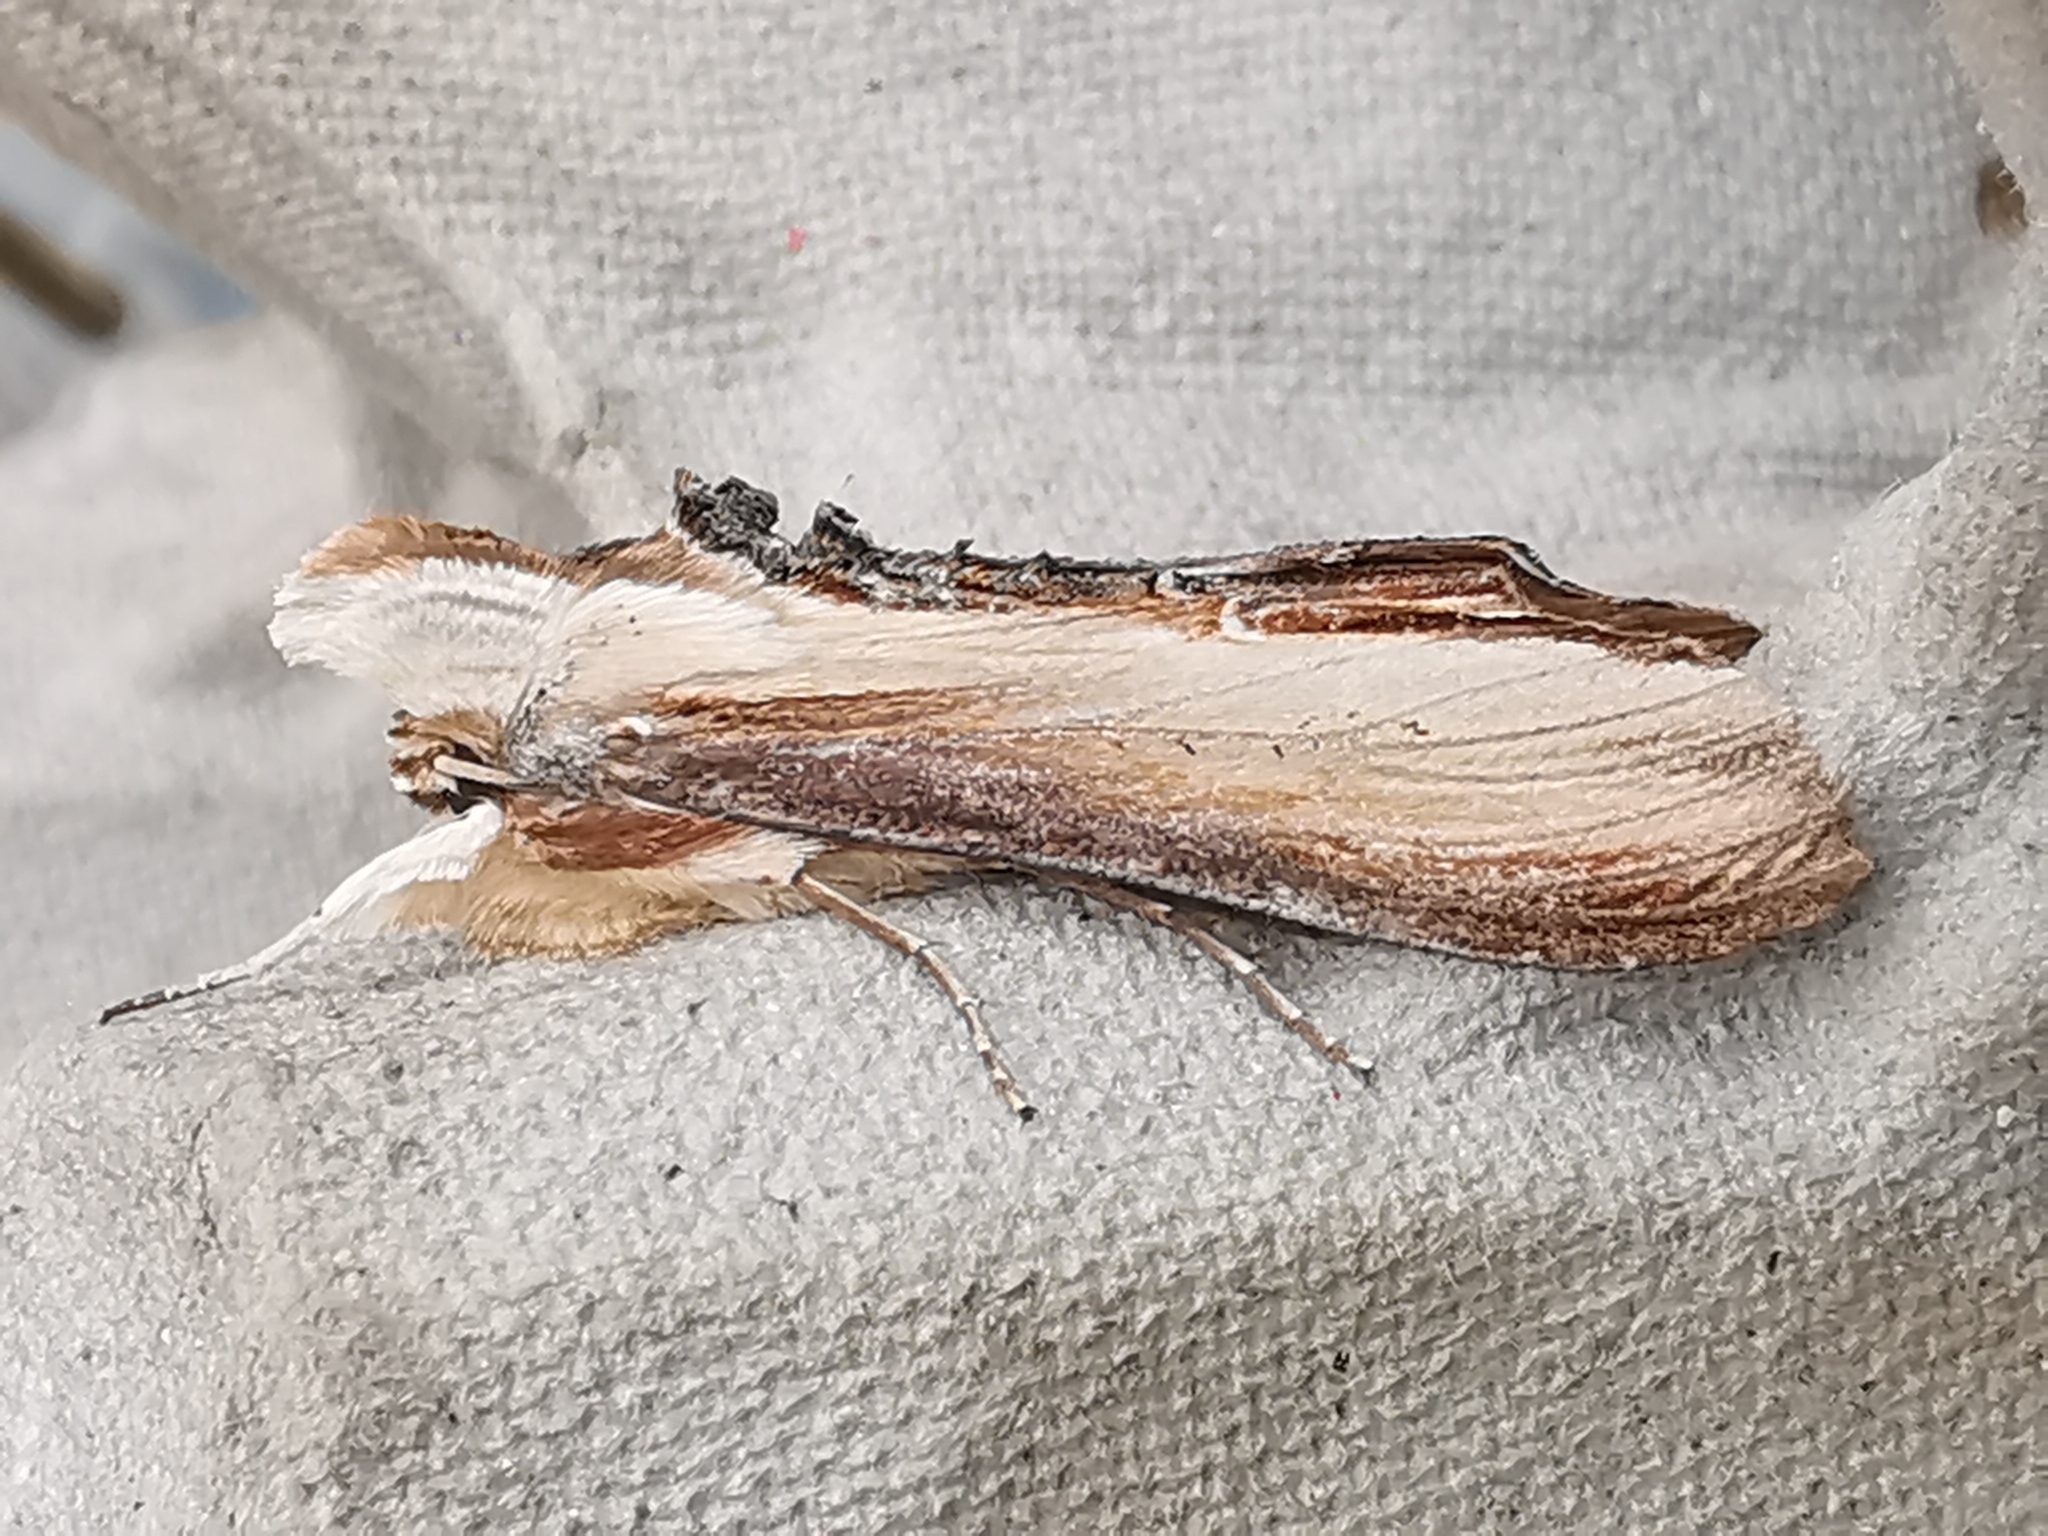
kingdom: Animalia
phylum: Arthropoda
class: Insecta
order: Lepidoptera
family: Noctuidae
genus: Cucullia
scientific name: Cucullia verbasci
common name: Mullein
